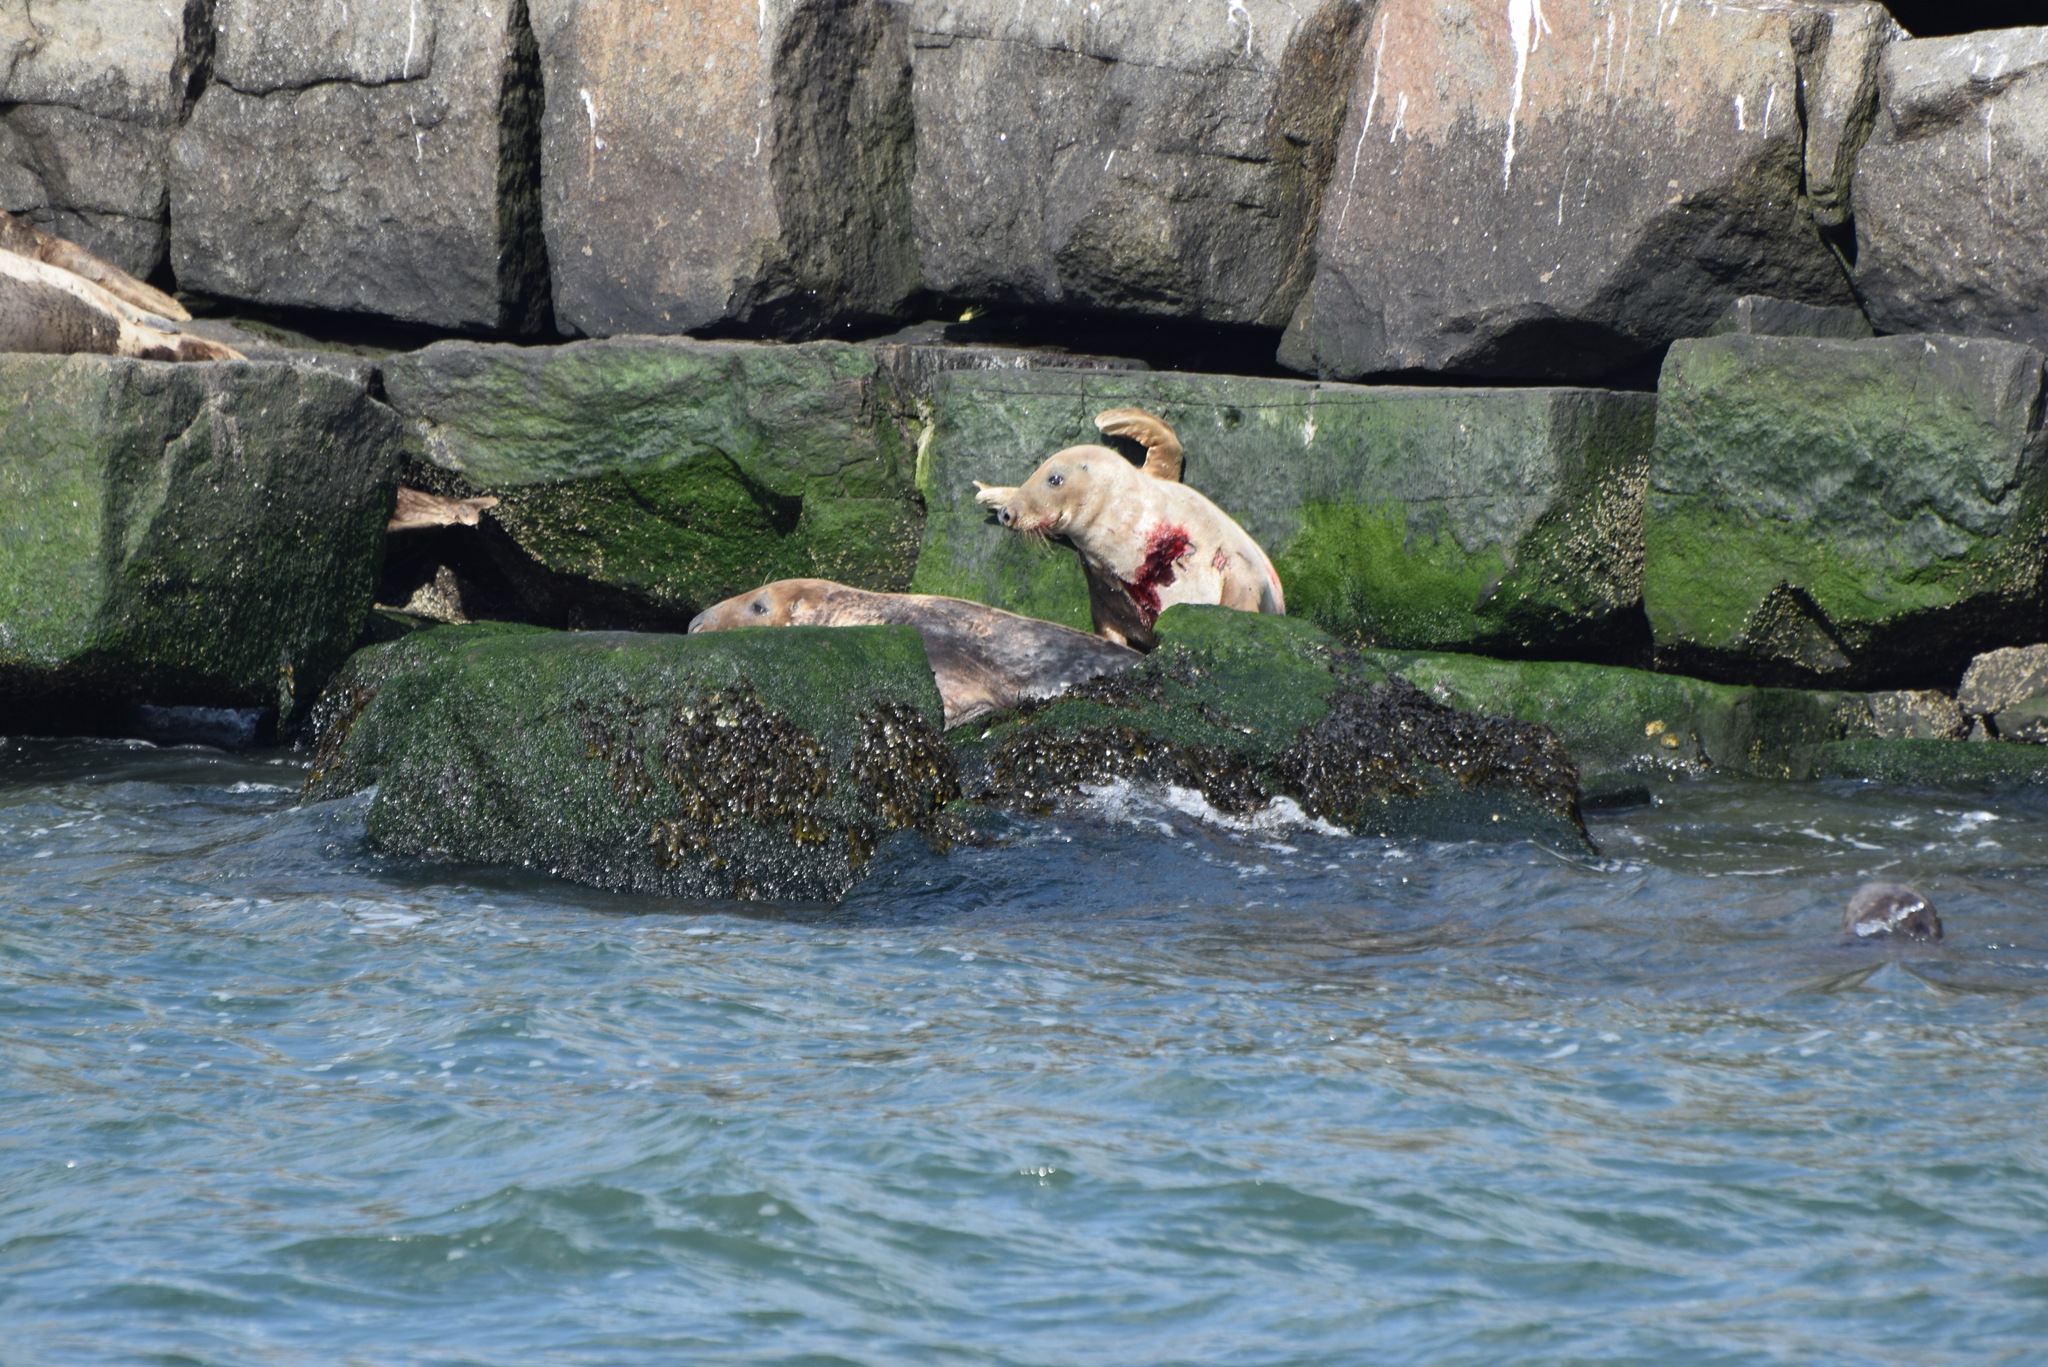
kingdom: Animalia
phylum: Chordata
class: Mammalia
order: Carnivora
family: Phocidae
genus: Halichoerus
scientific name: Halichoerus grypus
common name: Grey seal
